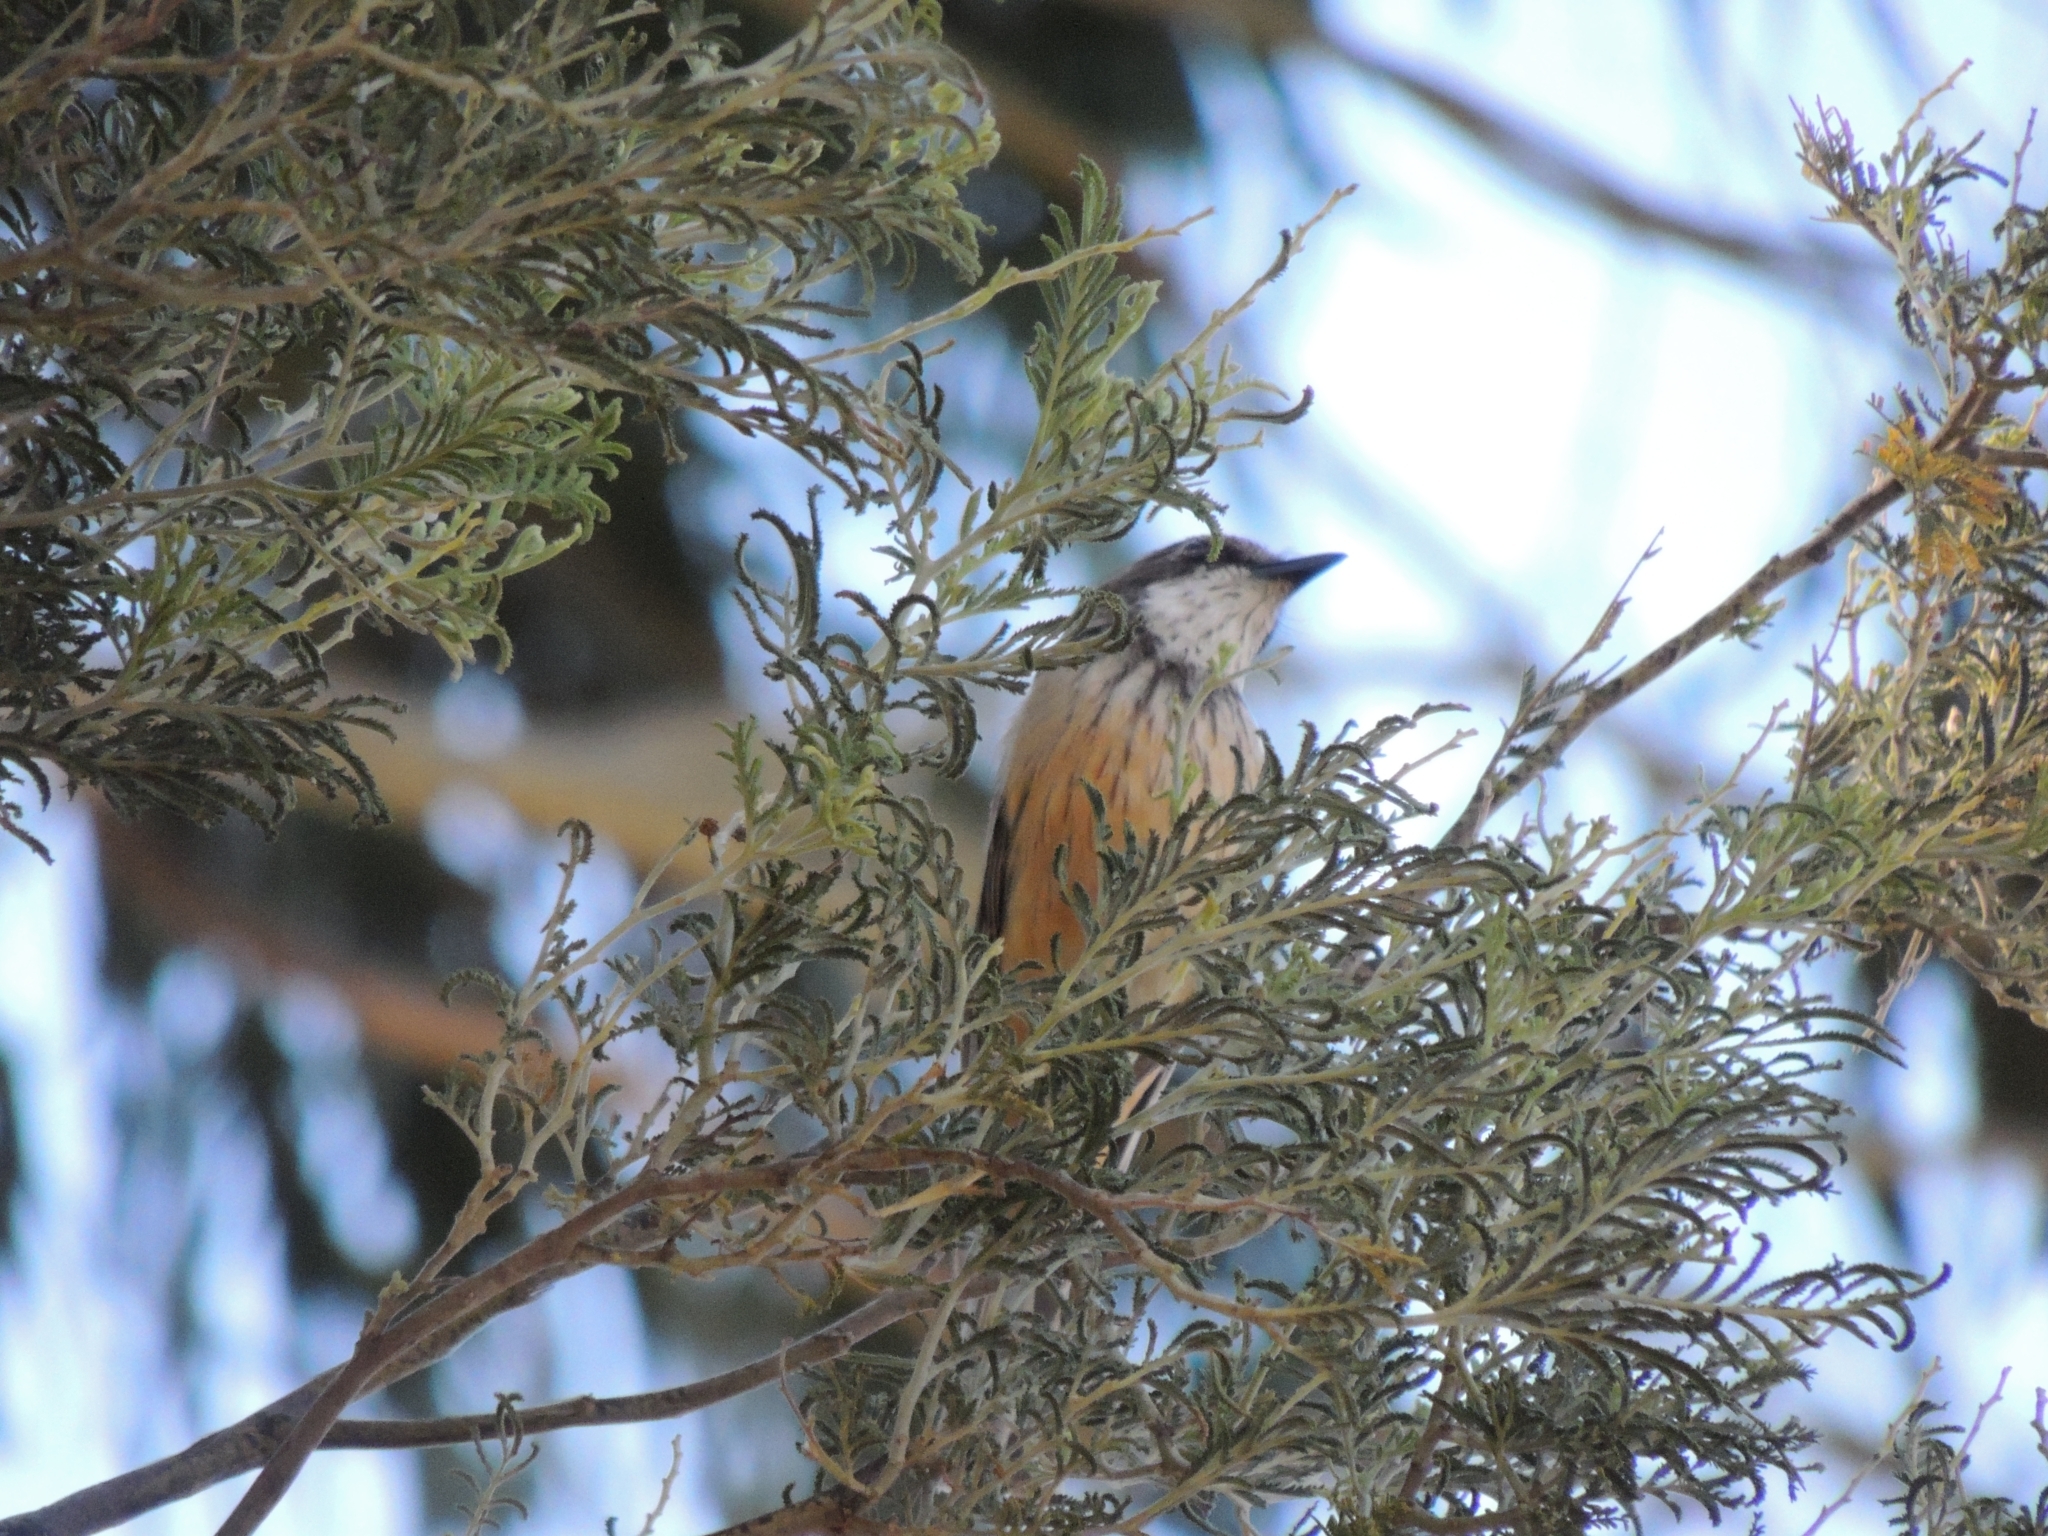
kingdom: Animalia
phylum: Chordata
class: Aves
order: Passeriformes
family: Pachycephalidae
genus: Pachycephala
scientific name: Pachycephala rufiventris
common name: Rufous whistler
